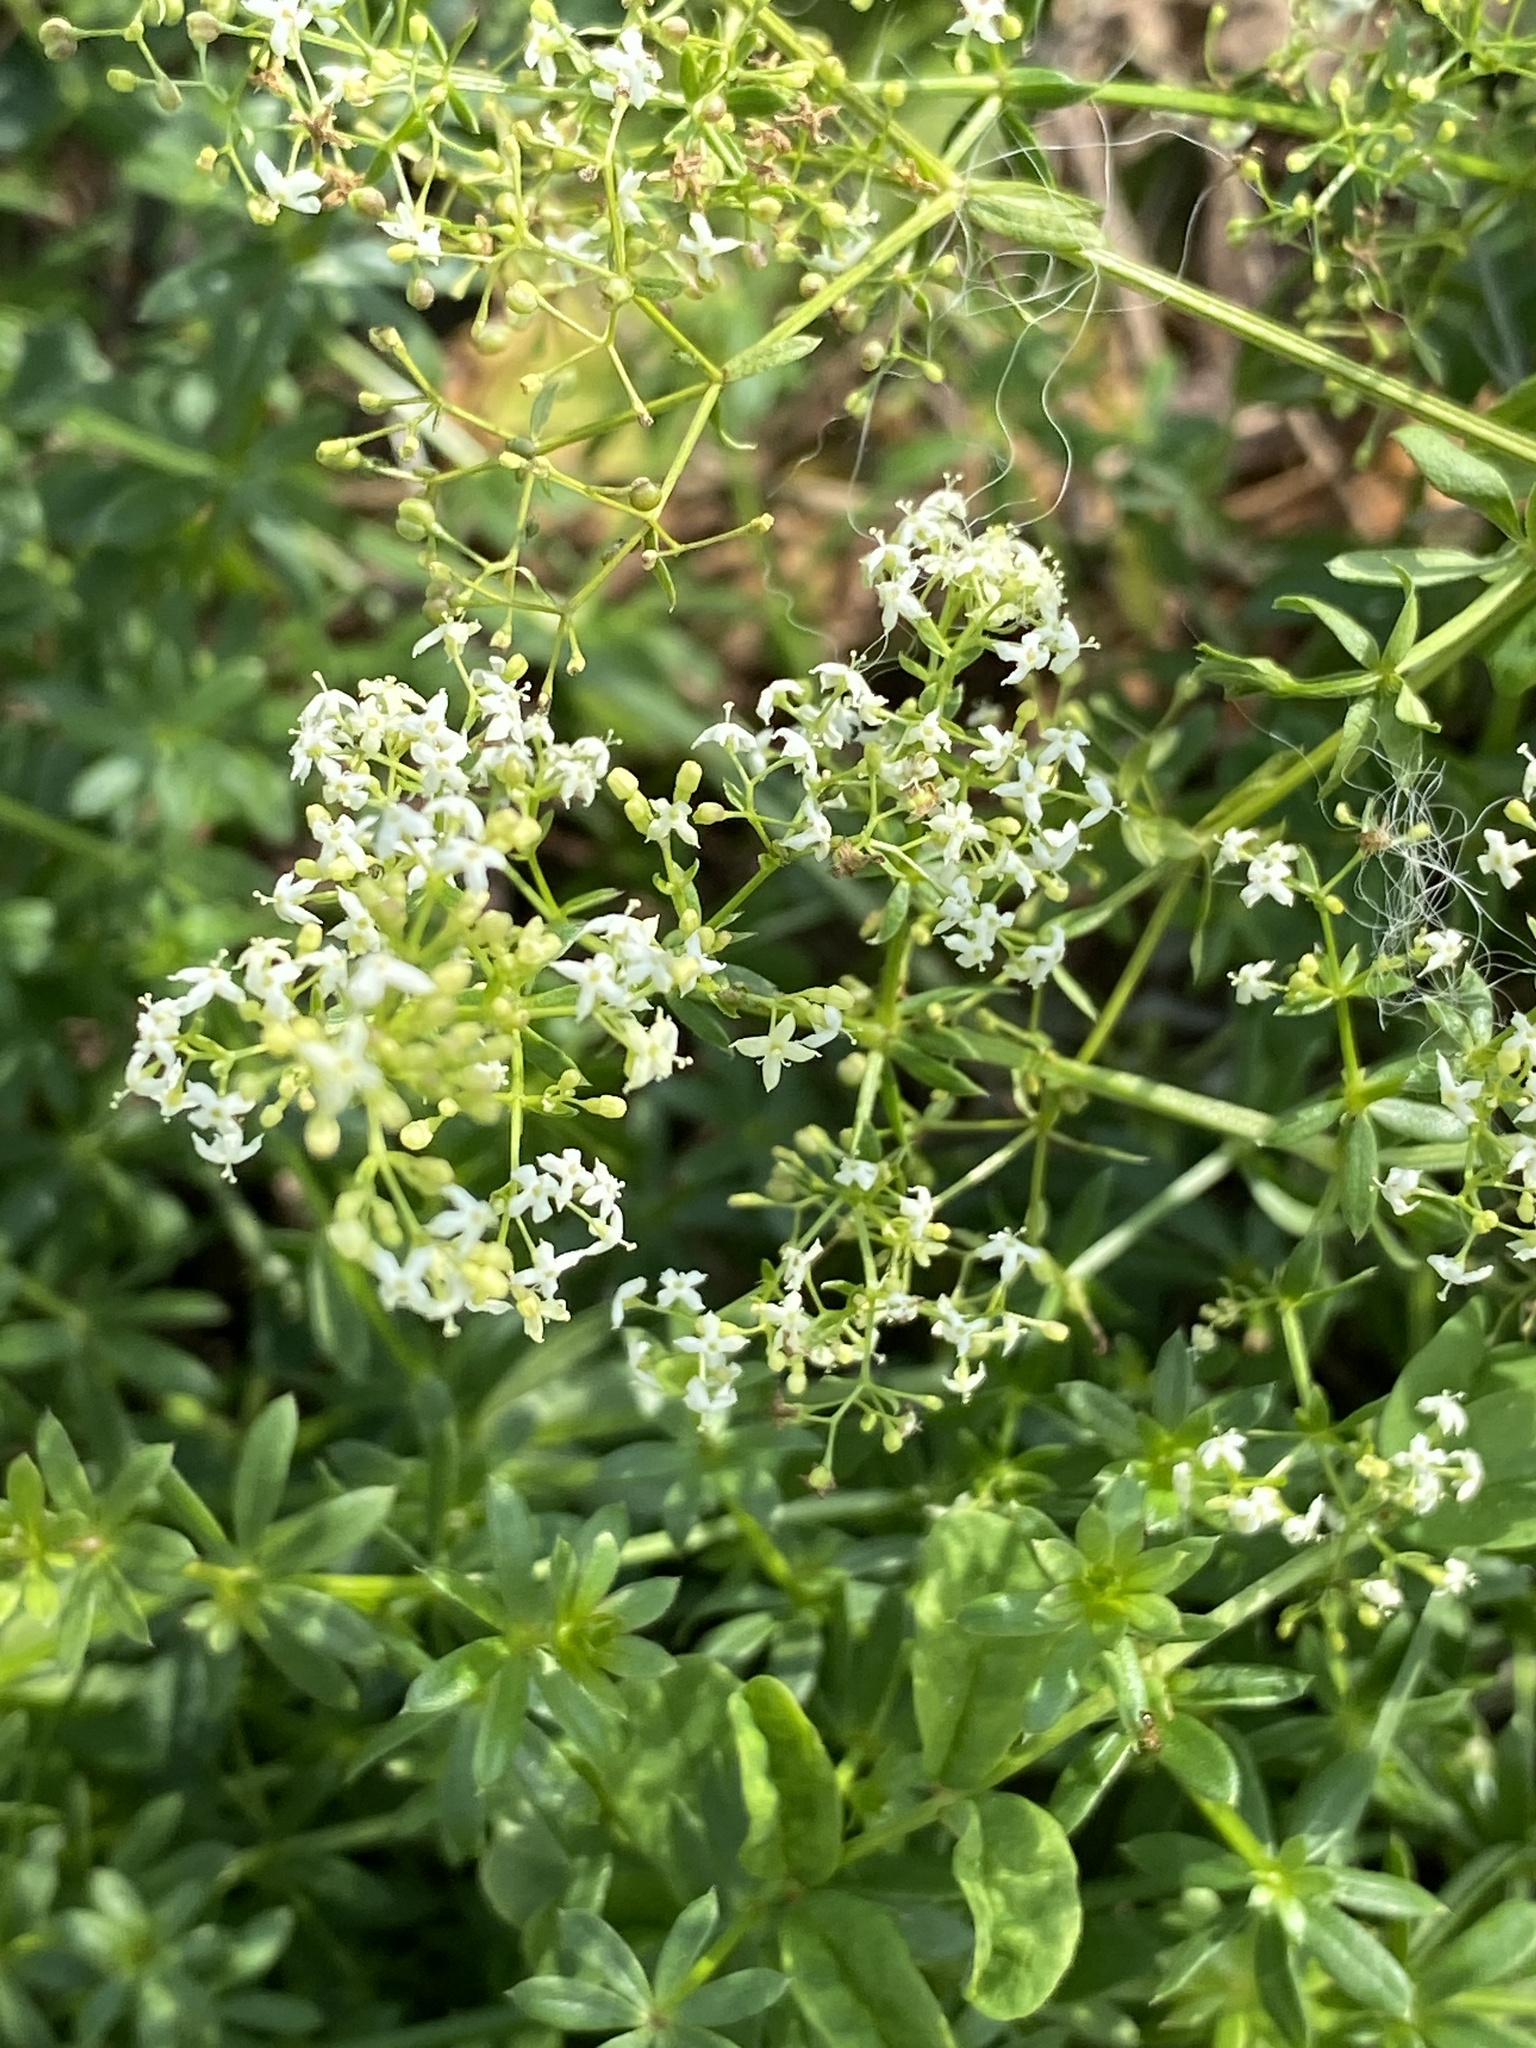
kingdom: Plantae
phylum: Tracheophyta
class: Magnoliopsida
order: Gentianales
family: Rubiaceae
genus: Galium
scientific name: Galium mollugo
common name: Hedge bedstraw
